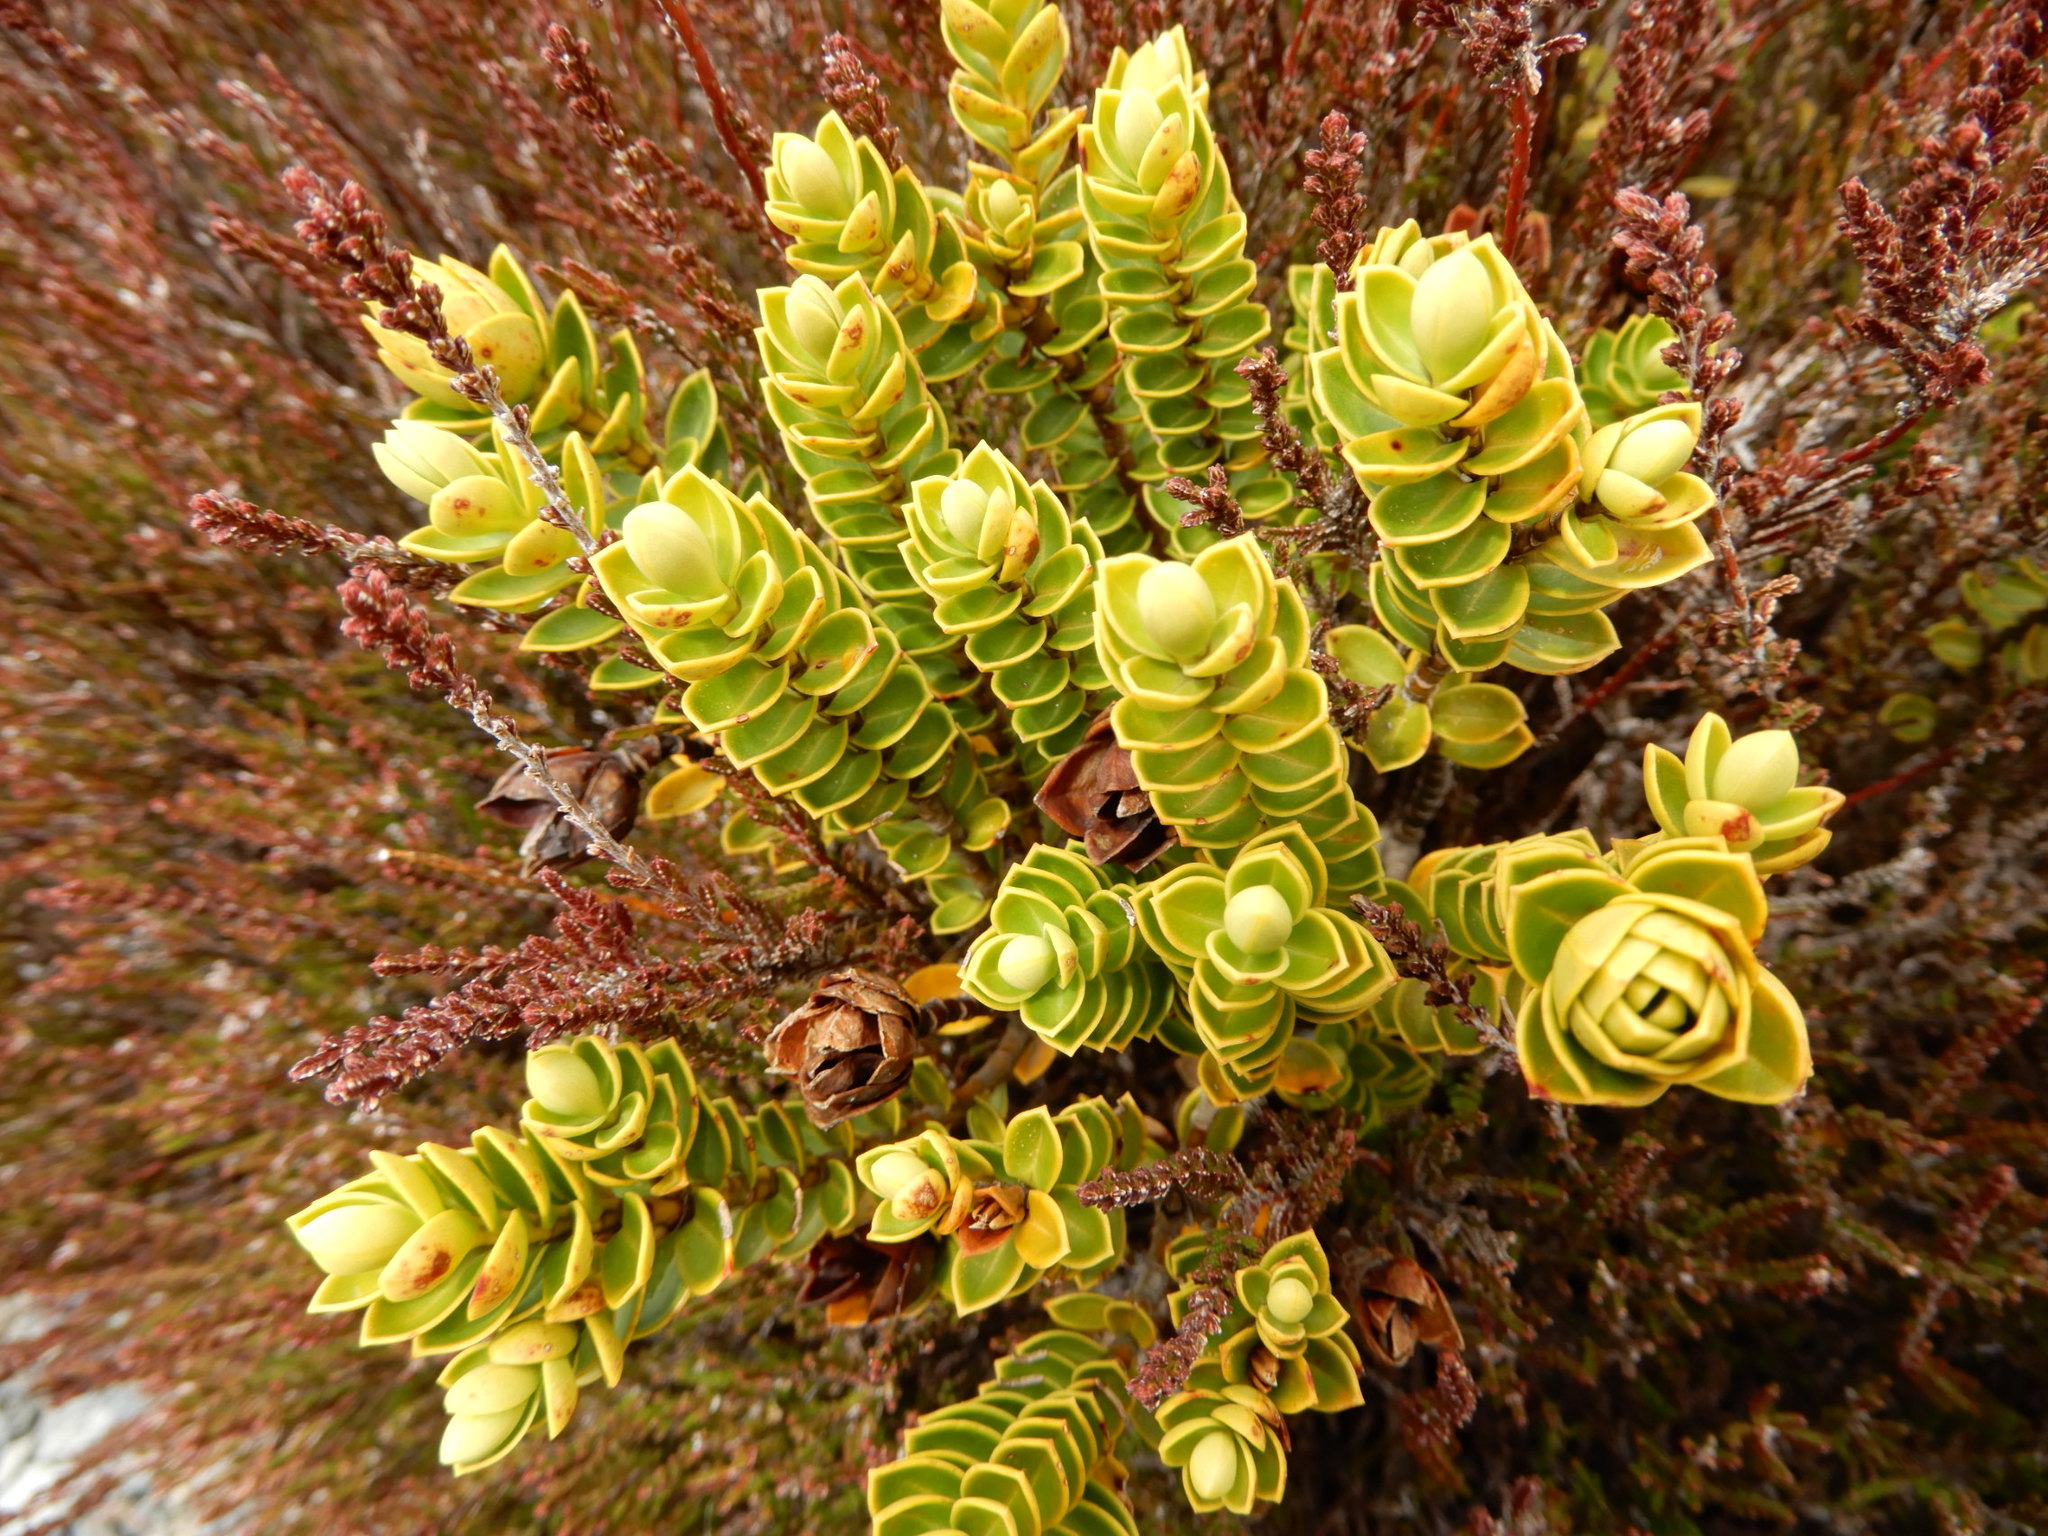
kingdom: Plantae
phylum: Tracheophyta
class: Magnoliopsida
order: Lamiales
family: Plantaginaceae
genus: Veronica
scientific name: Veronica venustula
